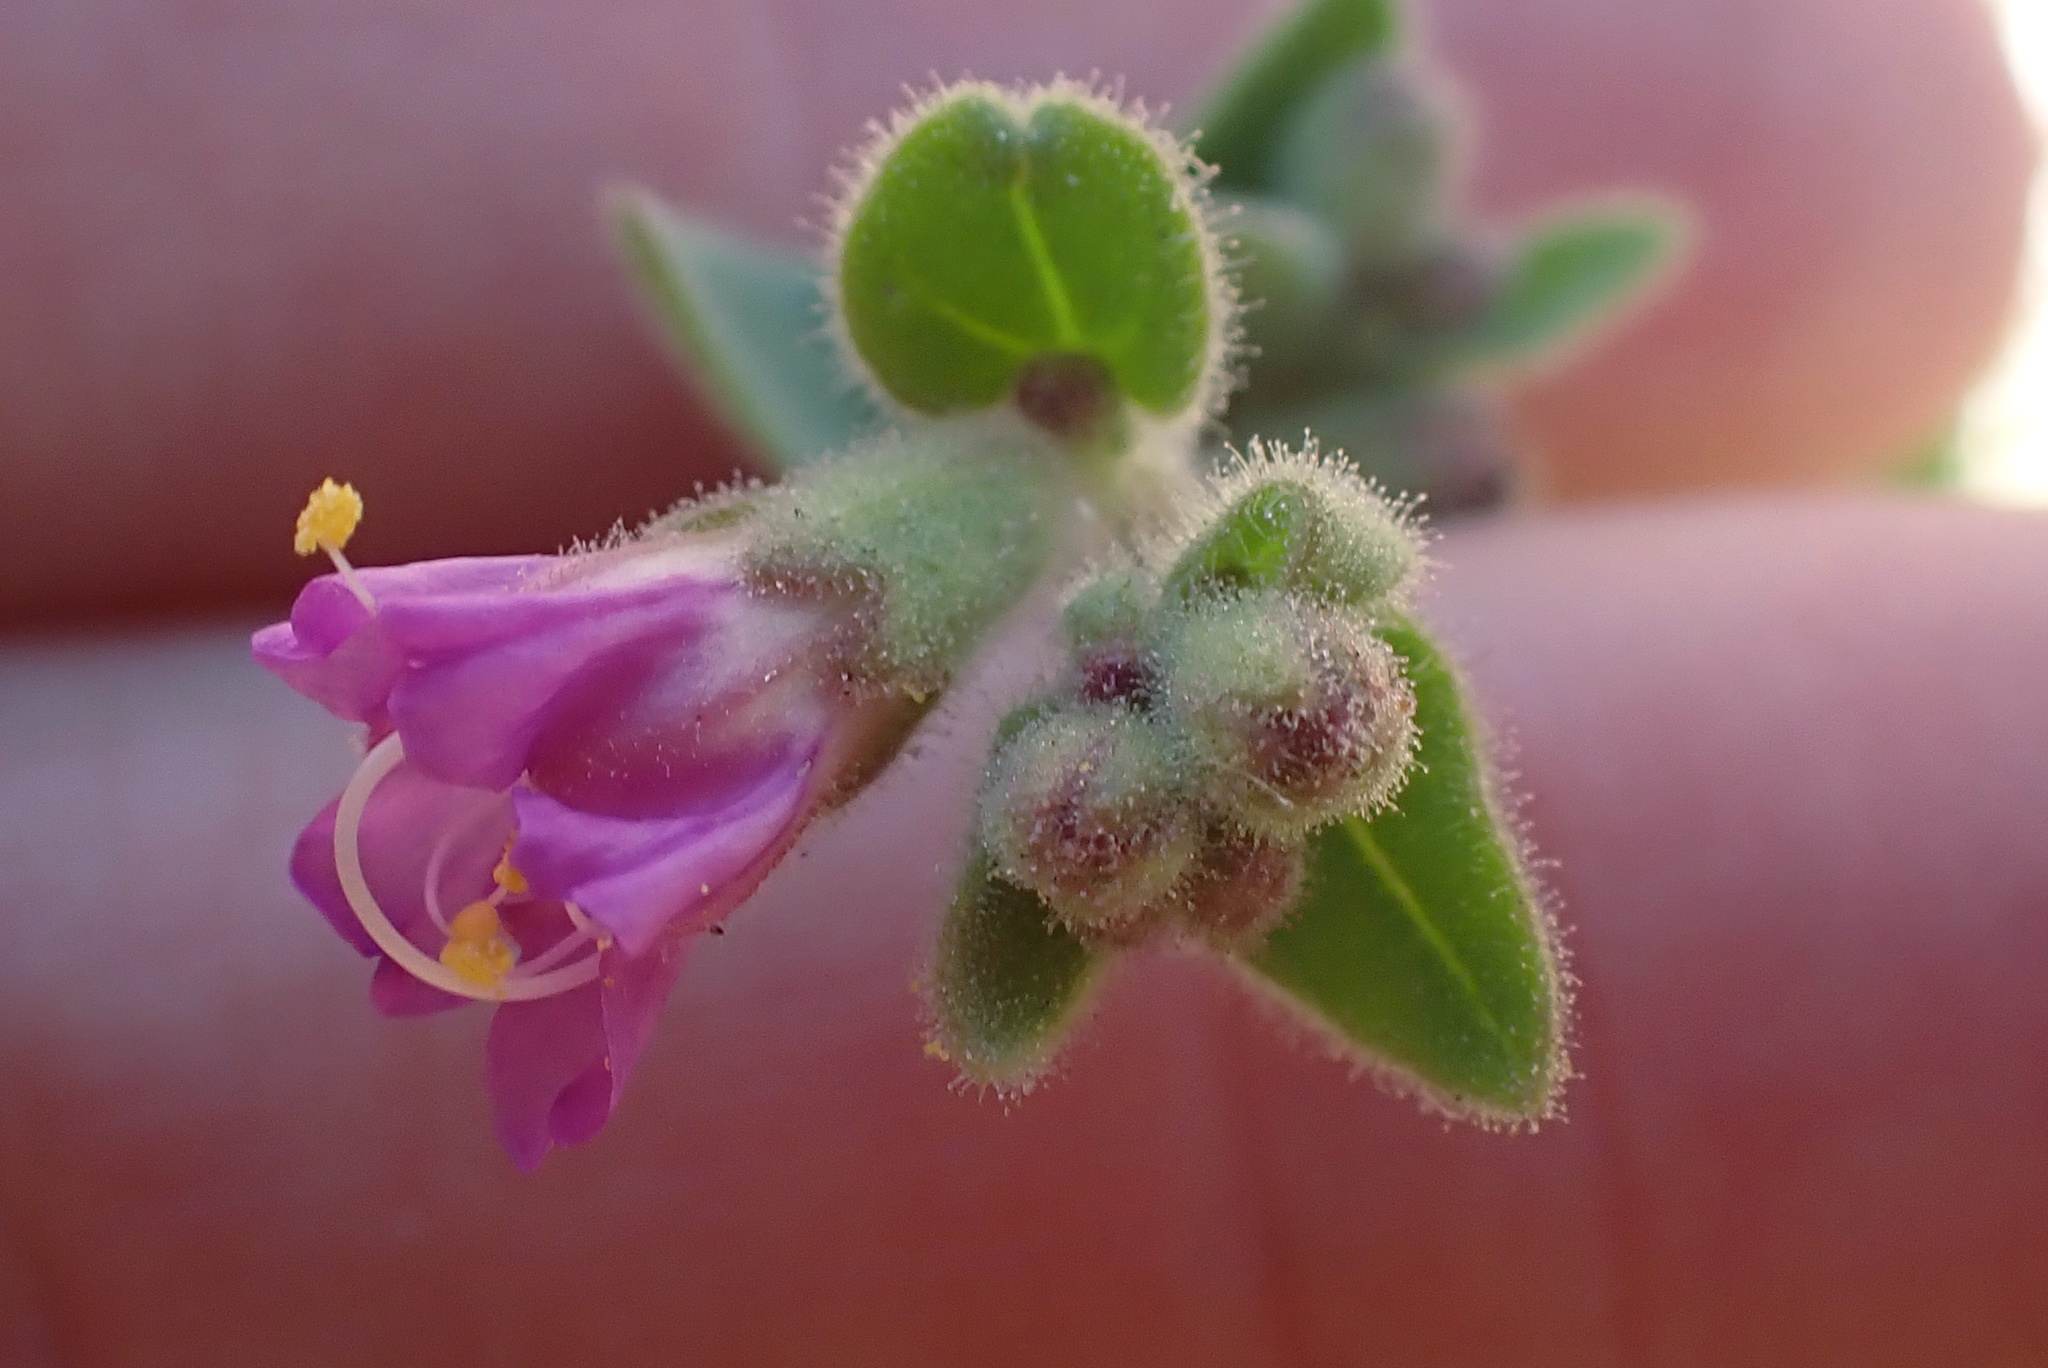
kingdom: Plantae
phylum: Tracheophyta
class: Magnoliopsida
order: Caryophyllales
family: Nyctaginaceae
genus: Mirabilis
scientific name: Mirabilis laevis
